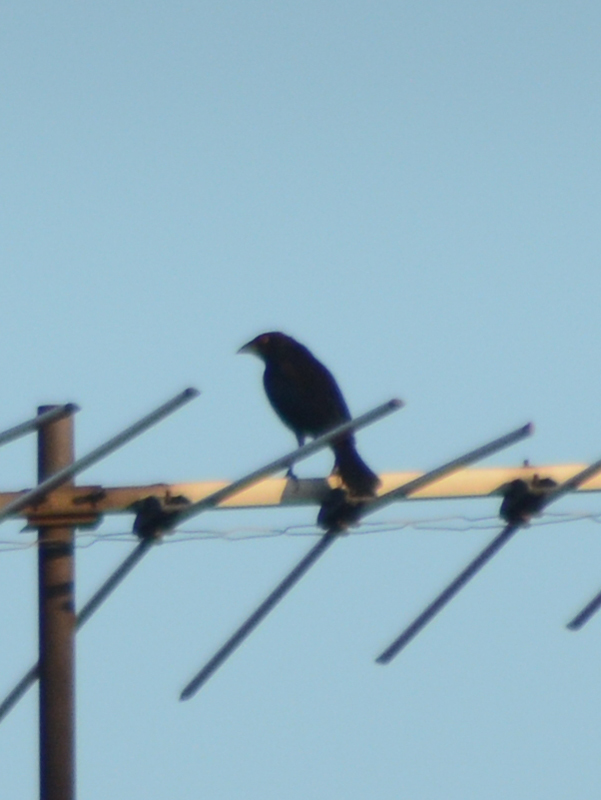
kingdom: Animalia
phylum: Chordata
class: Aves
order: Passeriformes
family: Icteridae
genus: Molothrus
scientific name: Molothrus aeneus
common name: Bronzed cowbird
